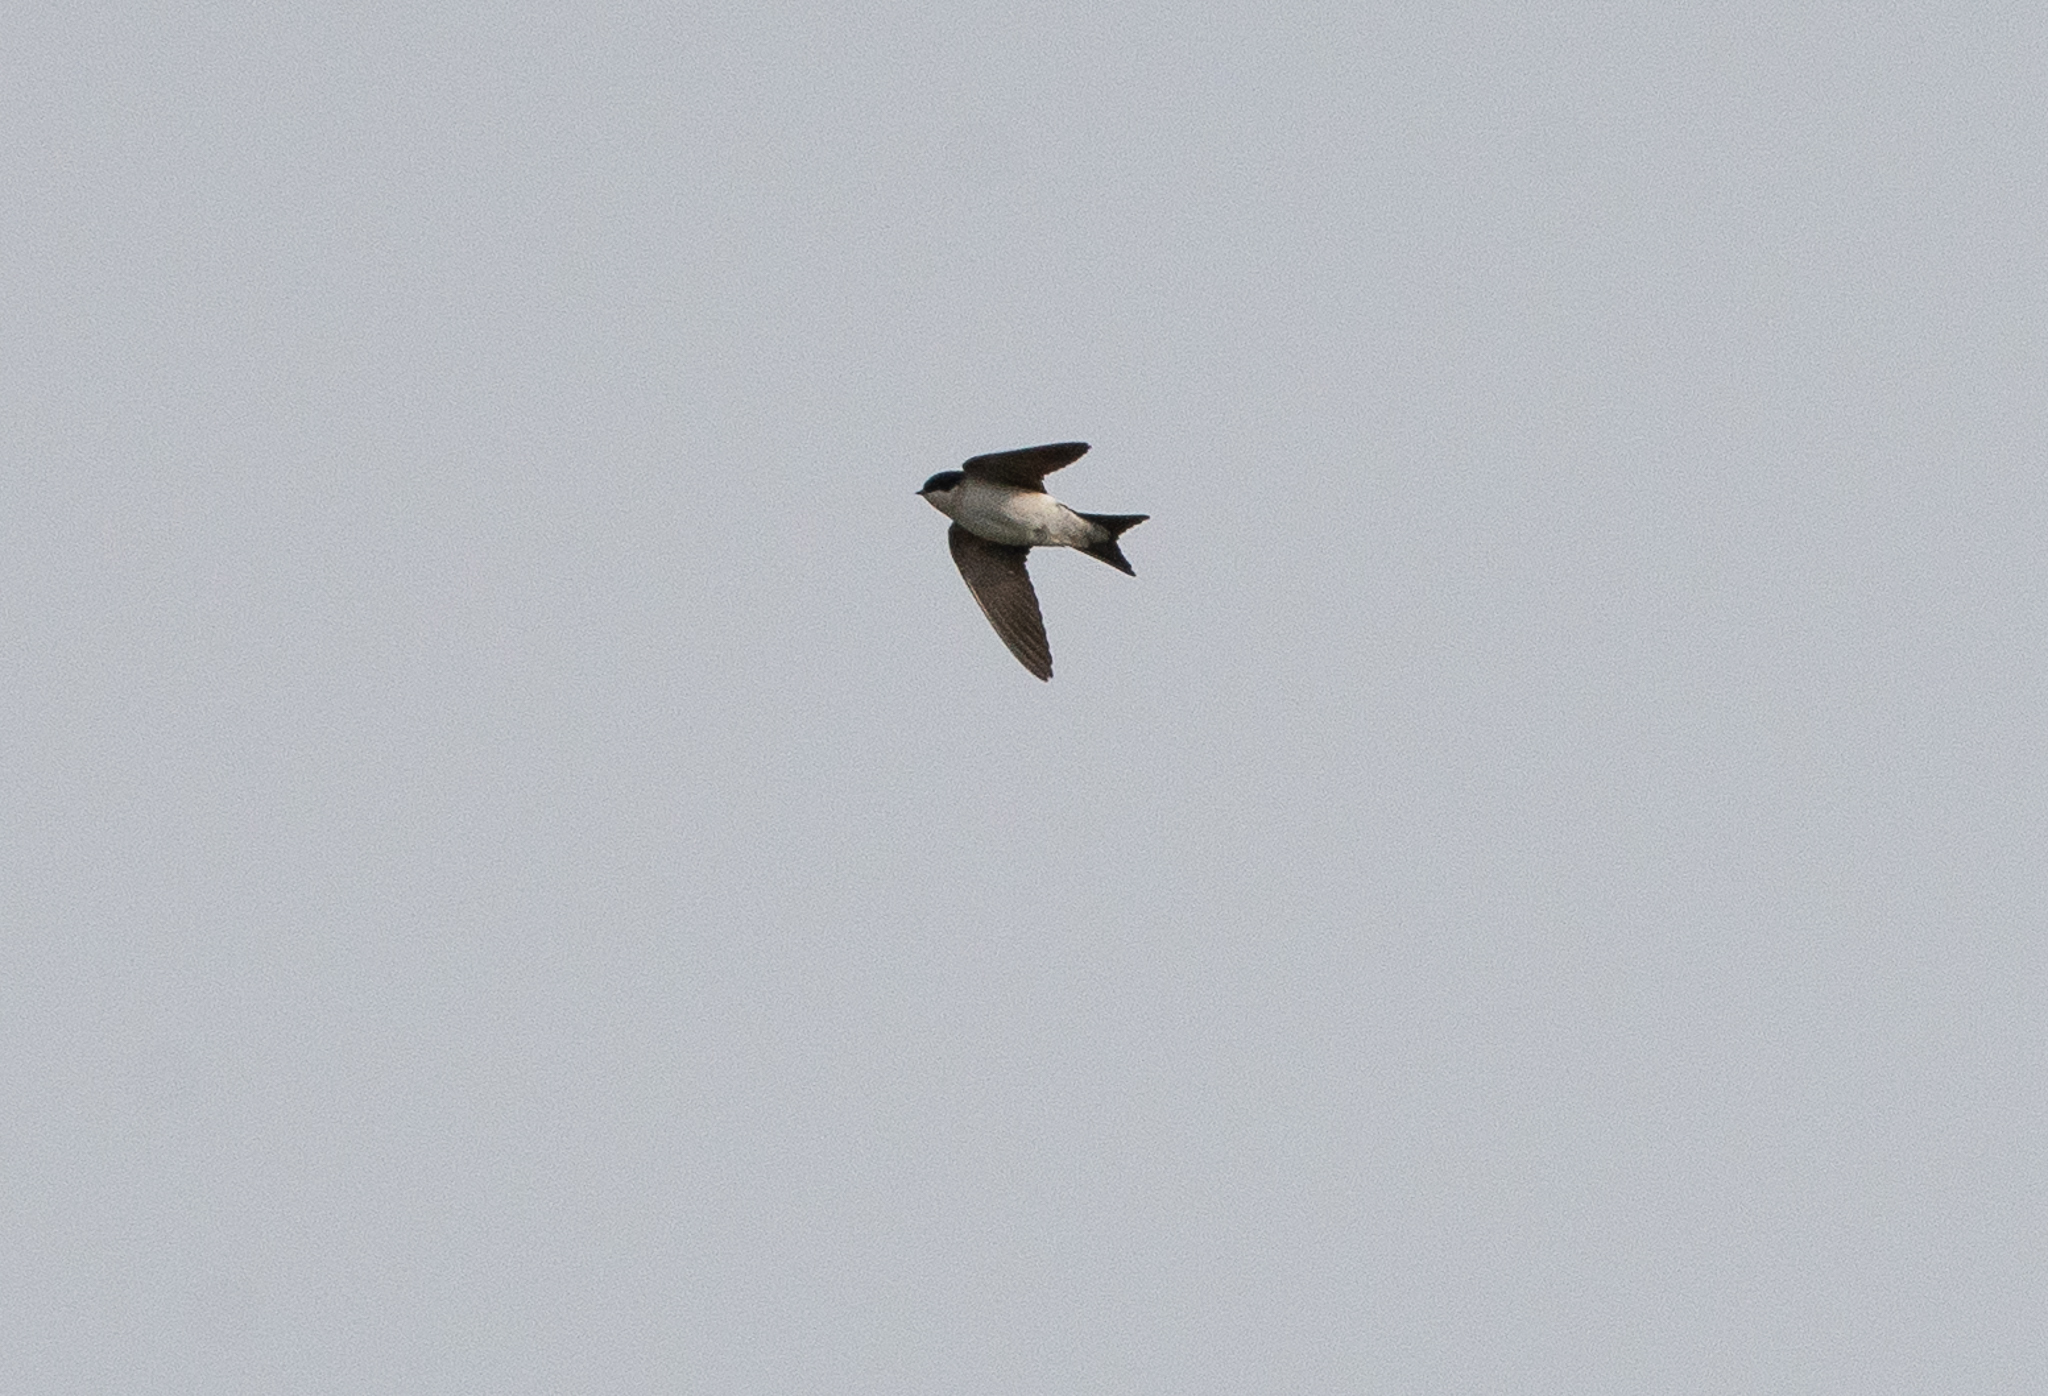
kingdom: Animalia
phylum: Chordata
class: Aves
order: Passeriformes
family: Hirundinidae
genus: Delichon
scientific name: Delichon urbicum
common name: Common house martin
